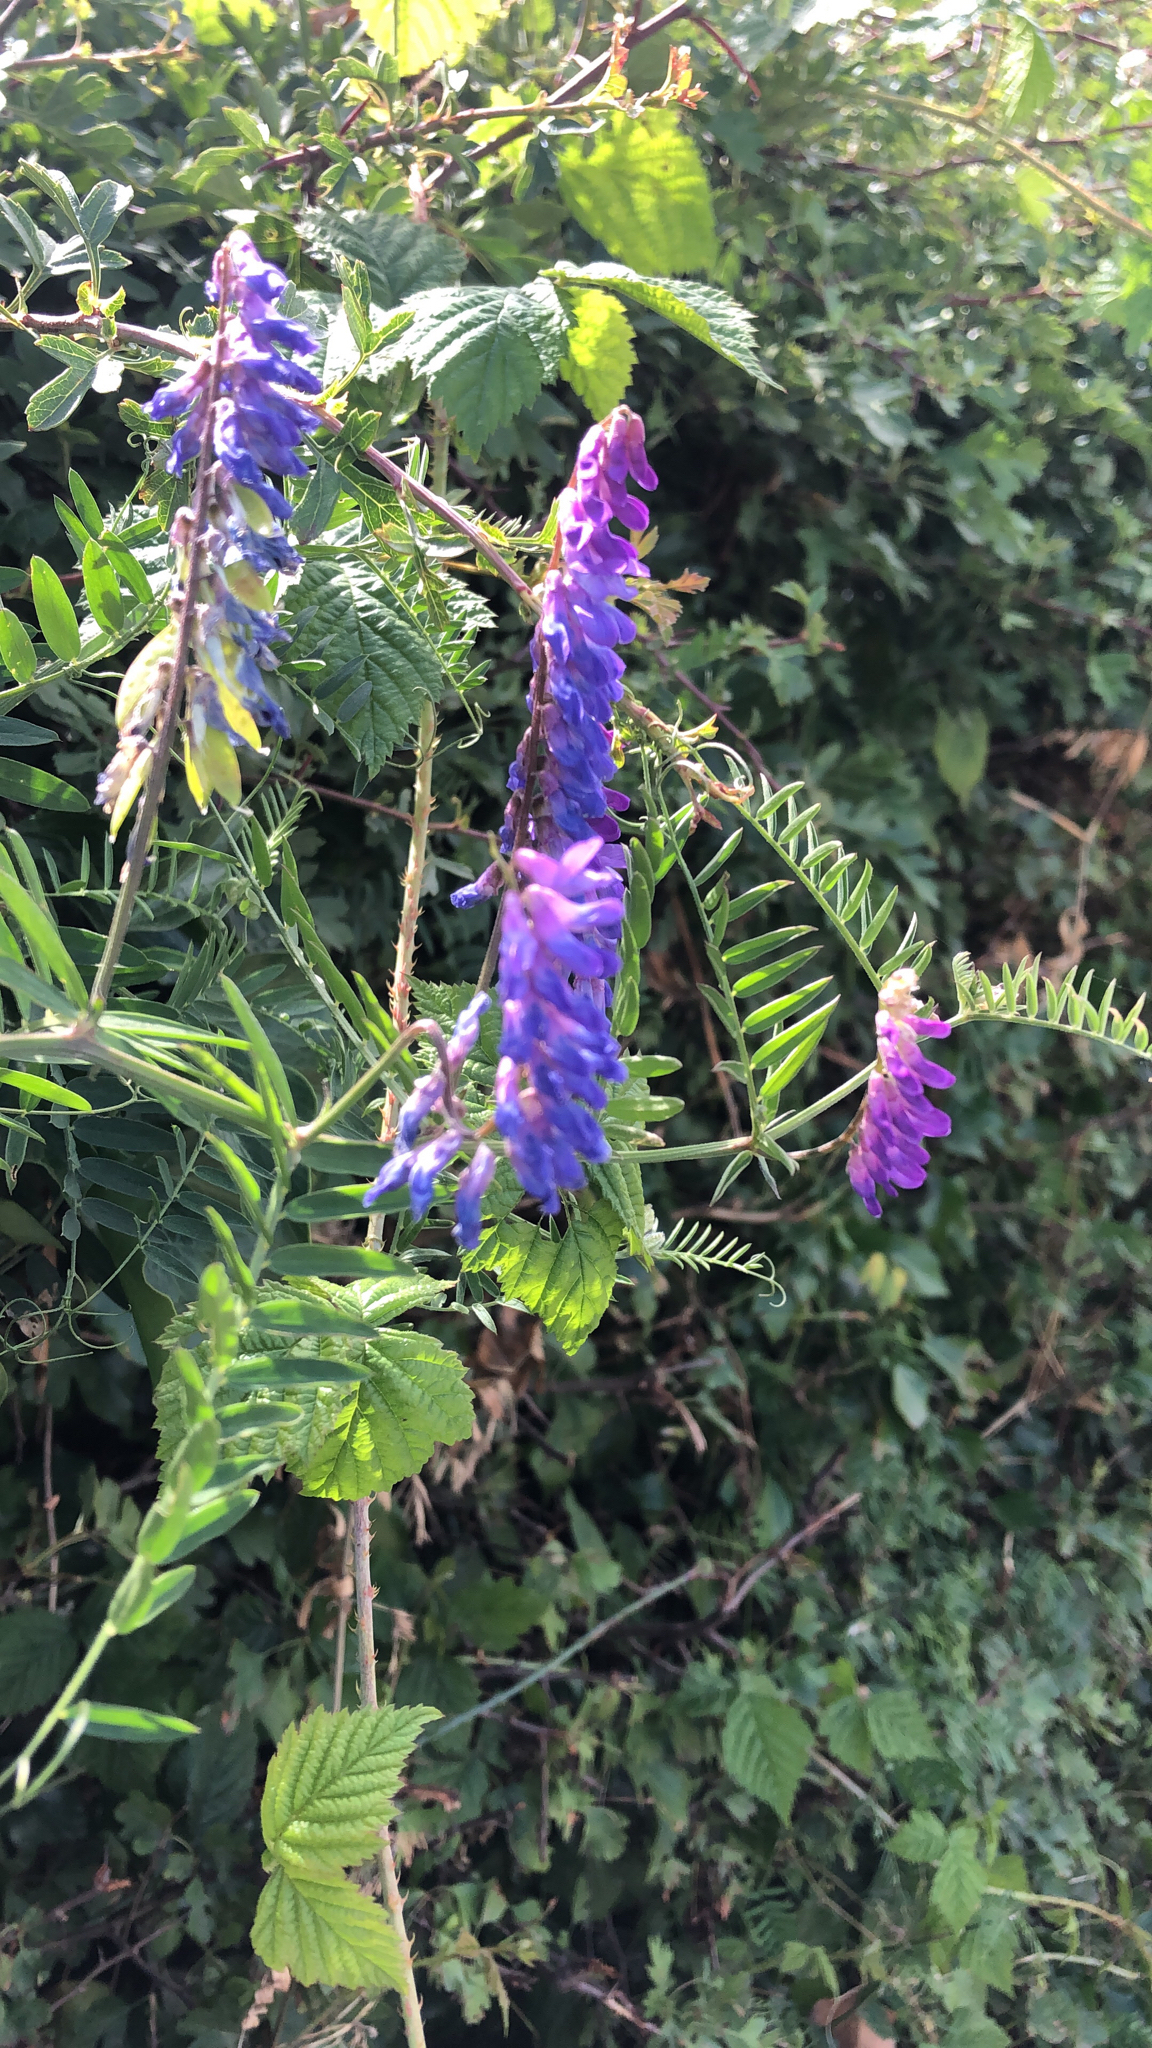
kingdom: Plantae
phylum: Tracheophyta
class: Magnoliopsida
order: Fabales
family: Fabaceae
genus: Vicia
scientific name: Vicia cracca
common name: Bird vetch
